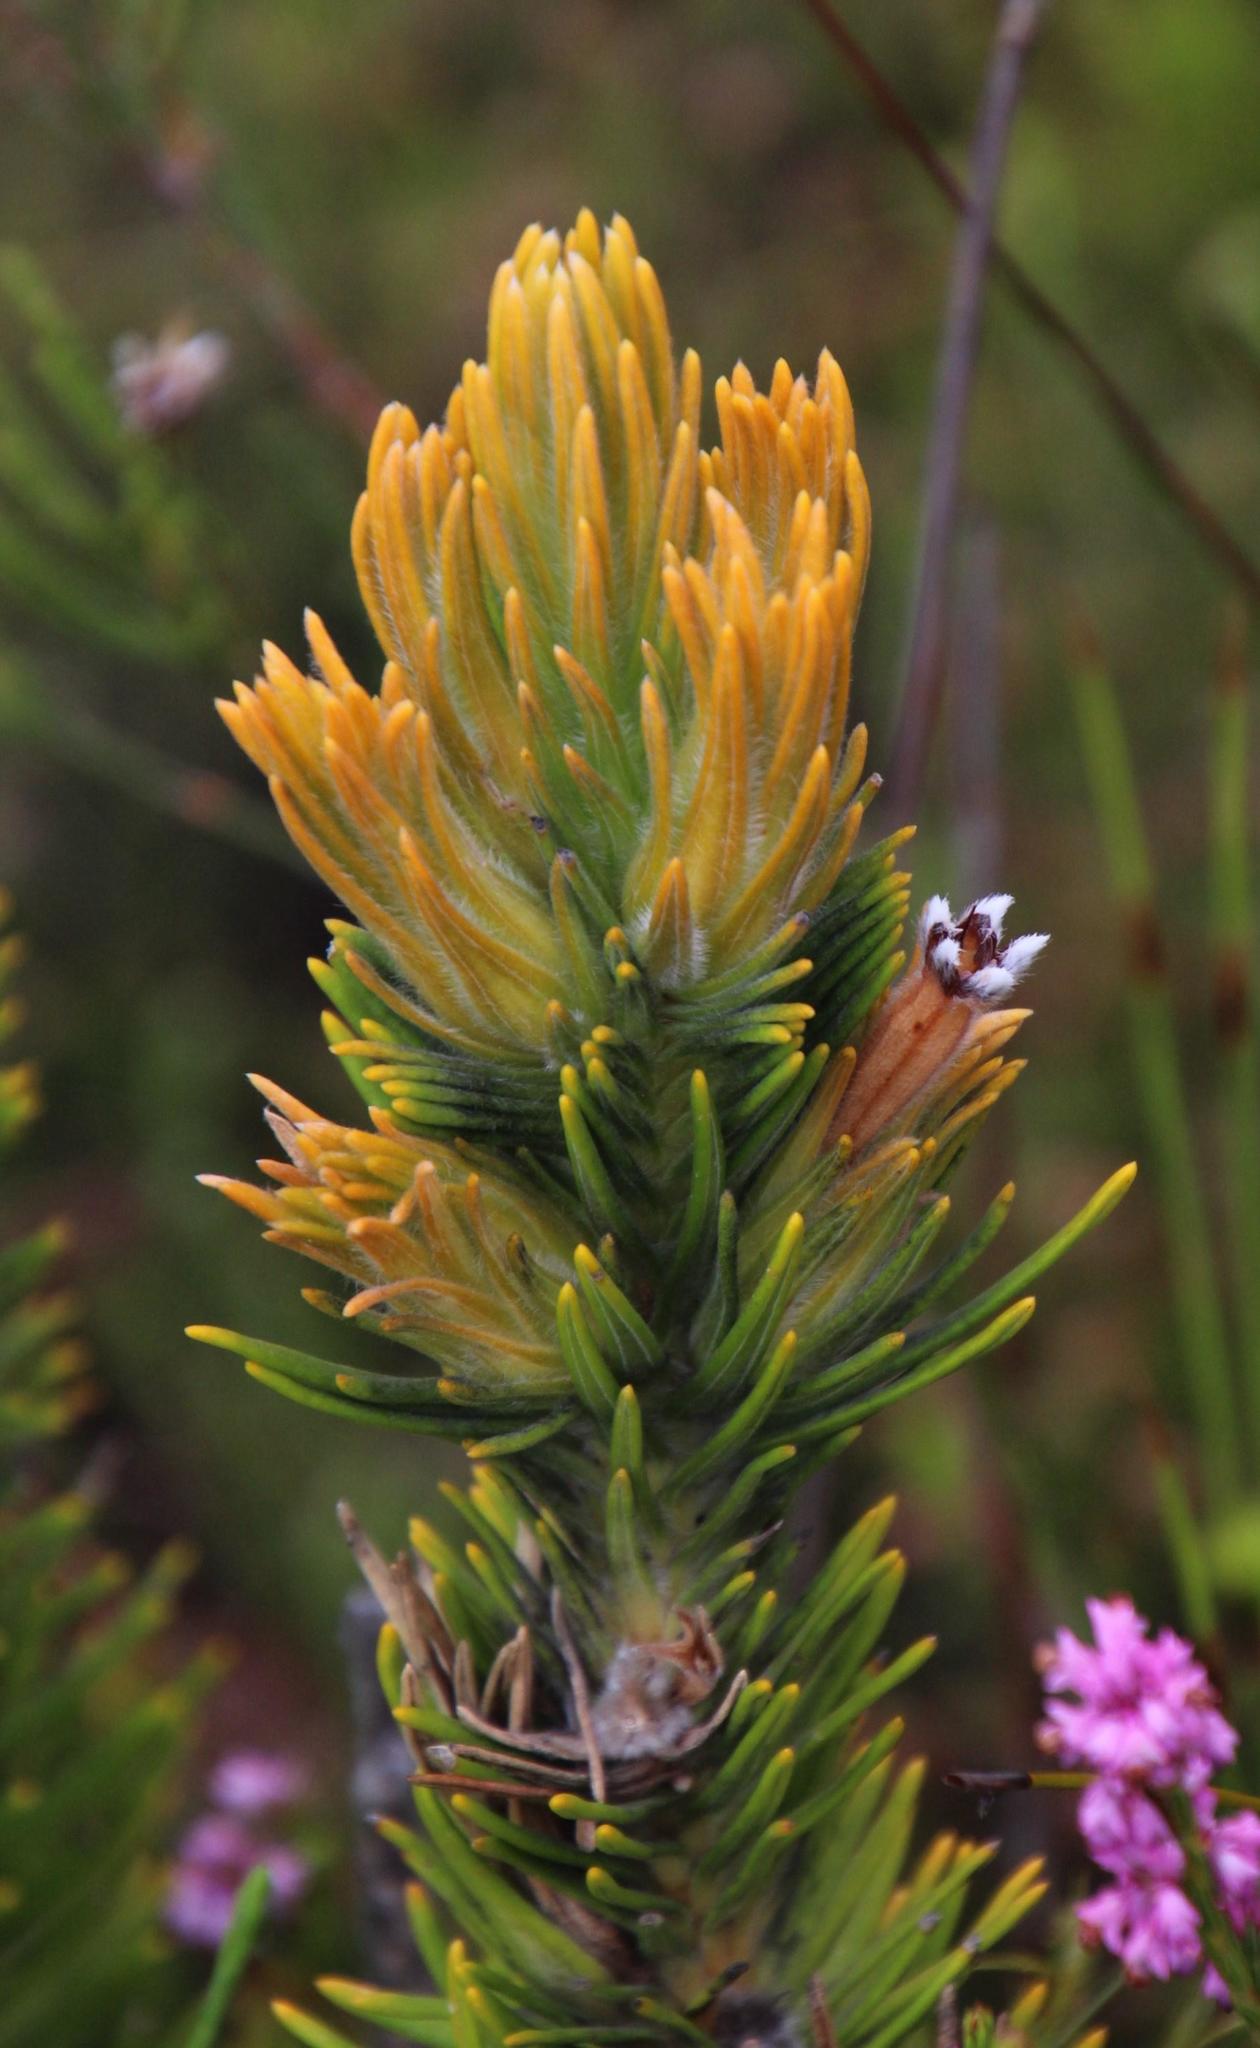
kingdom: Plantae
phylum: Tracheophyta
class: Magnoliopsida
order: Lamiales
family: Stilbaceae
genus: Retzia
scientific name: Retzia capensis
